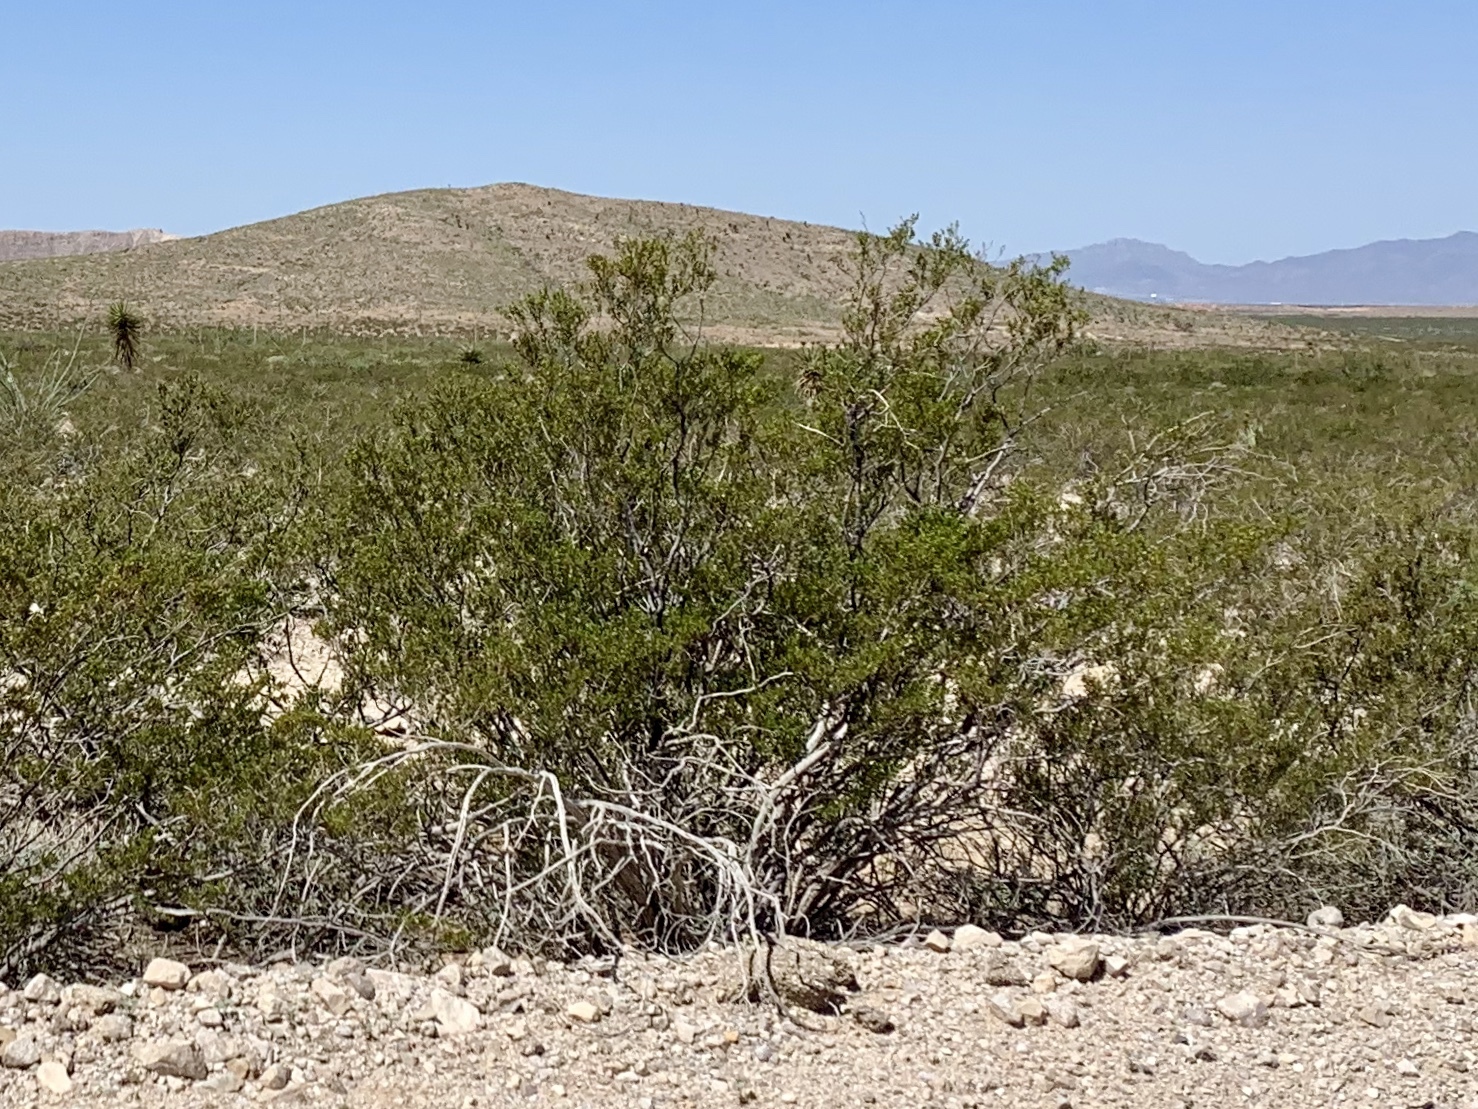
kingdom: Plantae
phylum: Tracheophyta
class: Magnoliopsida
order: Zygophyllales
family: Zygophyllaceae
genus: Larrea
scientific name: Larrea tridentata
